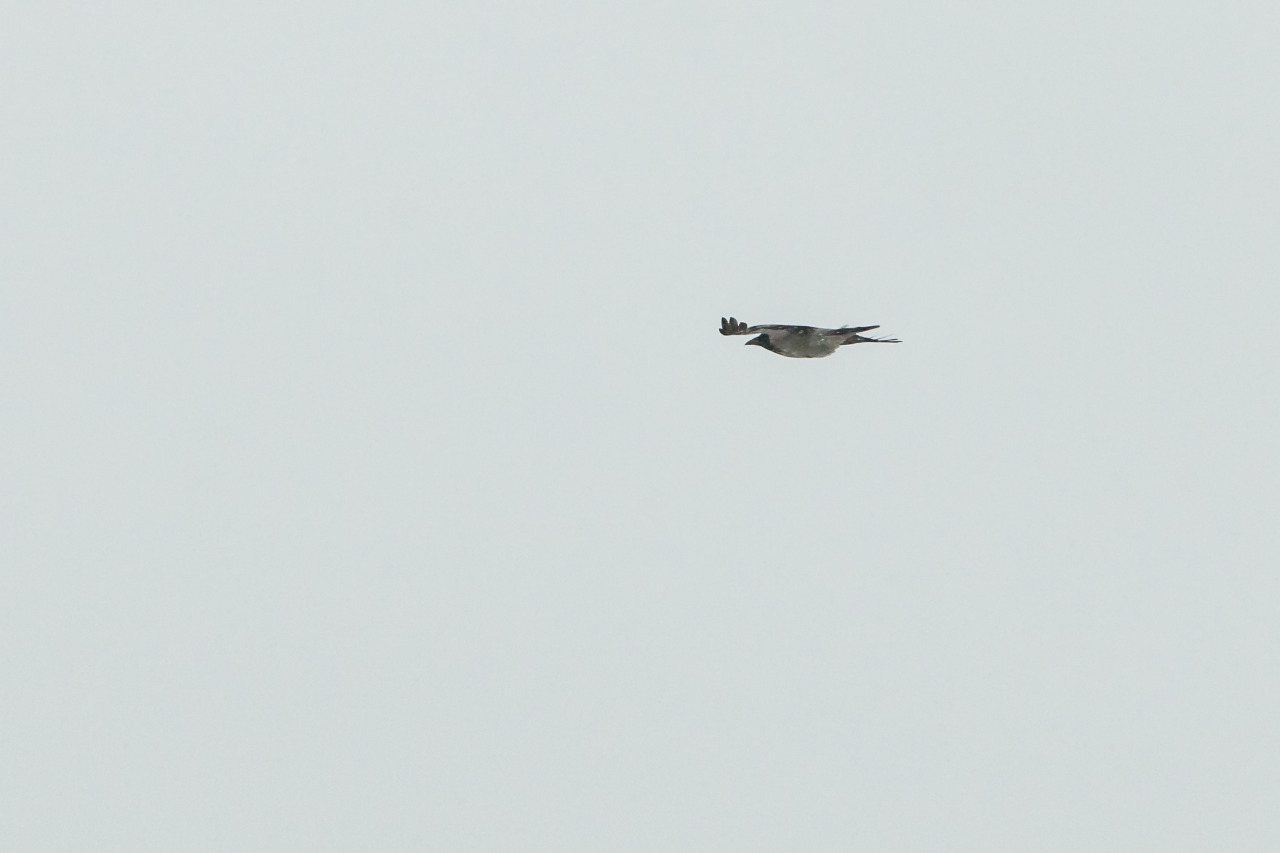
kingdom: Animalia
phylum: Chordata
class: Aves
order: Passeriformes
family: Corvidae
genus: Corvus
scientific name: Corvus cornix
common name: Hooded crow
